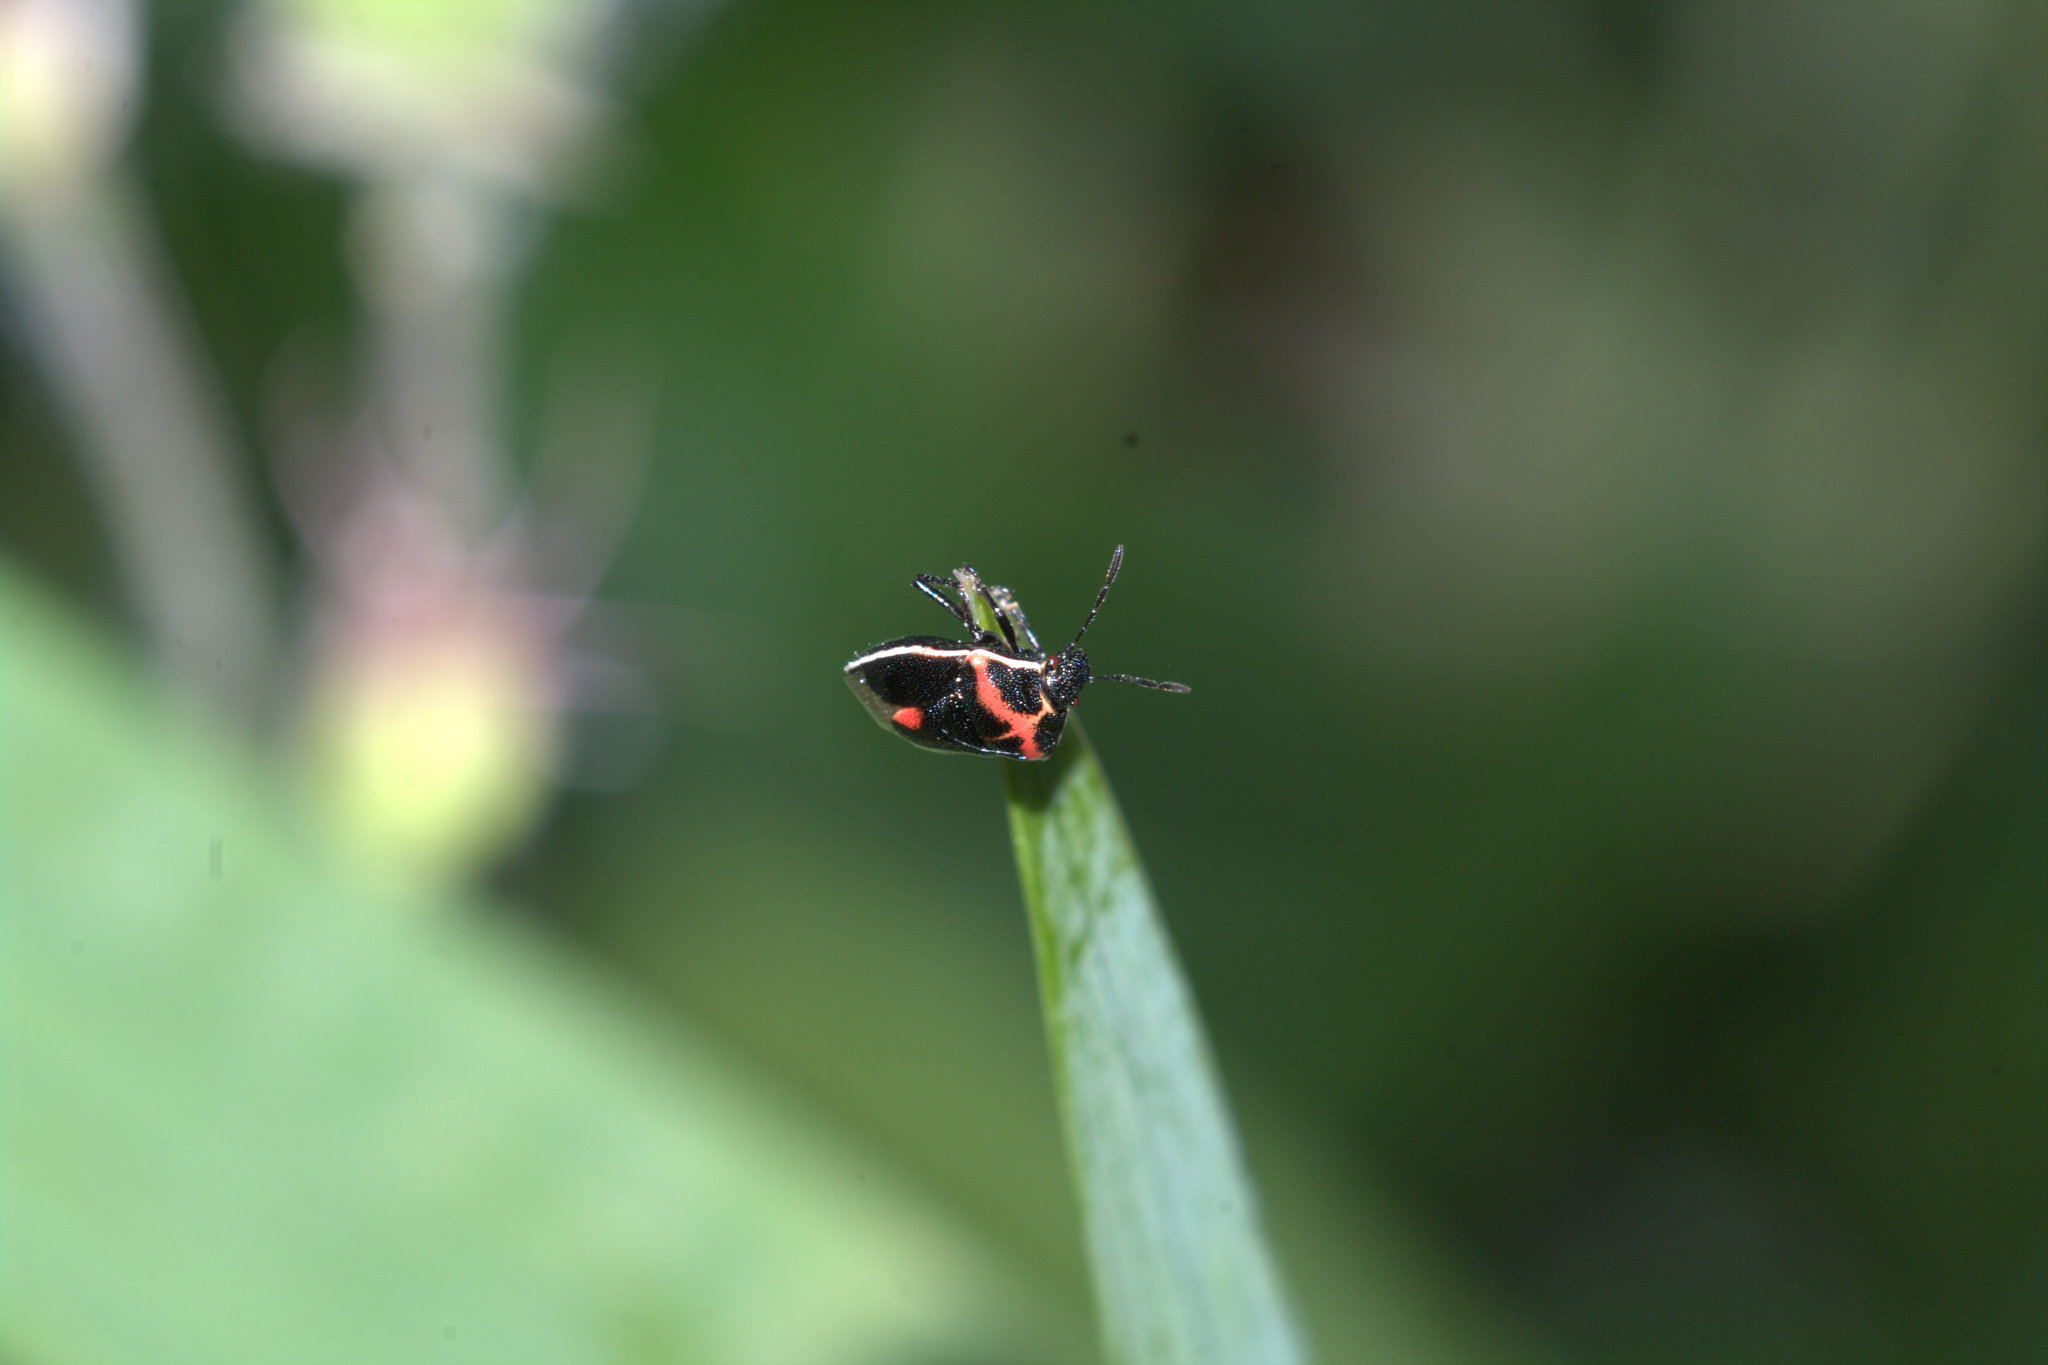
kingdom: Animalia
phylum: Arthropoda
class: Insecta
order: Hemiptera
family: Pentatomidae
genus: Cosmopepla
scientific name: Cosmopepla lintneriana
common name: Twice-stabbed stink bug
